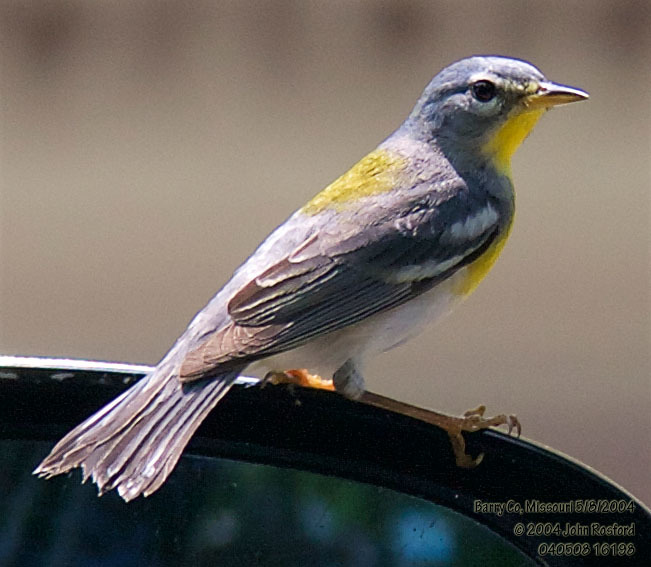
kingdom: Animalia
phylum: Chordata
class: Aves
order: Passeriformes
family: Parulidae
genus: Setophaga
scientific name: Setophaga americana
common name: Northern parula
